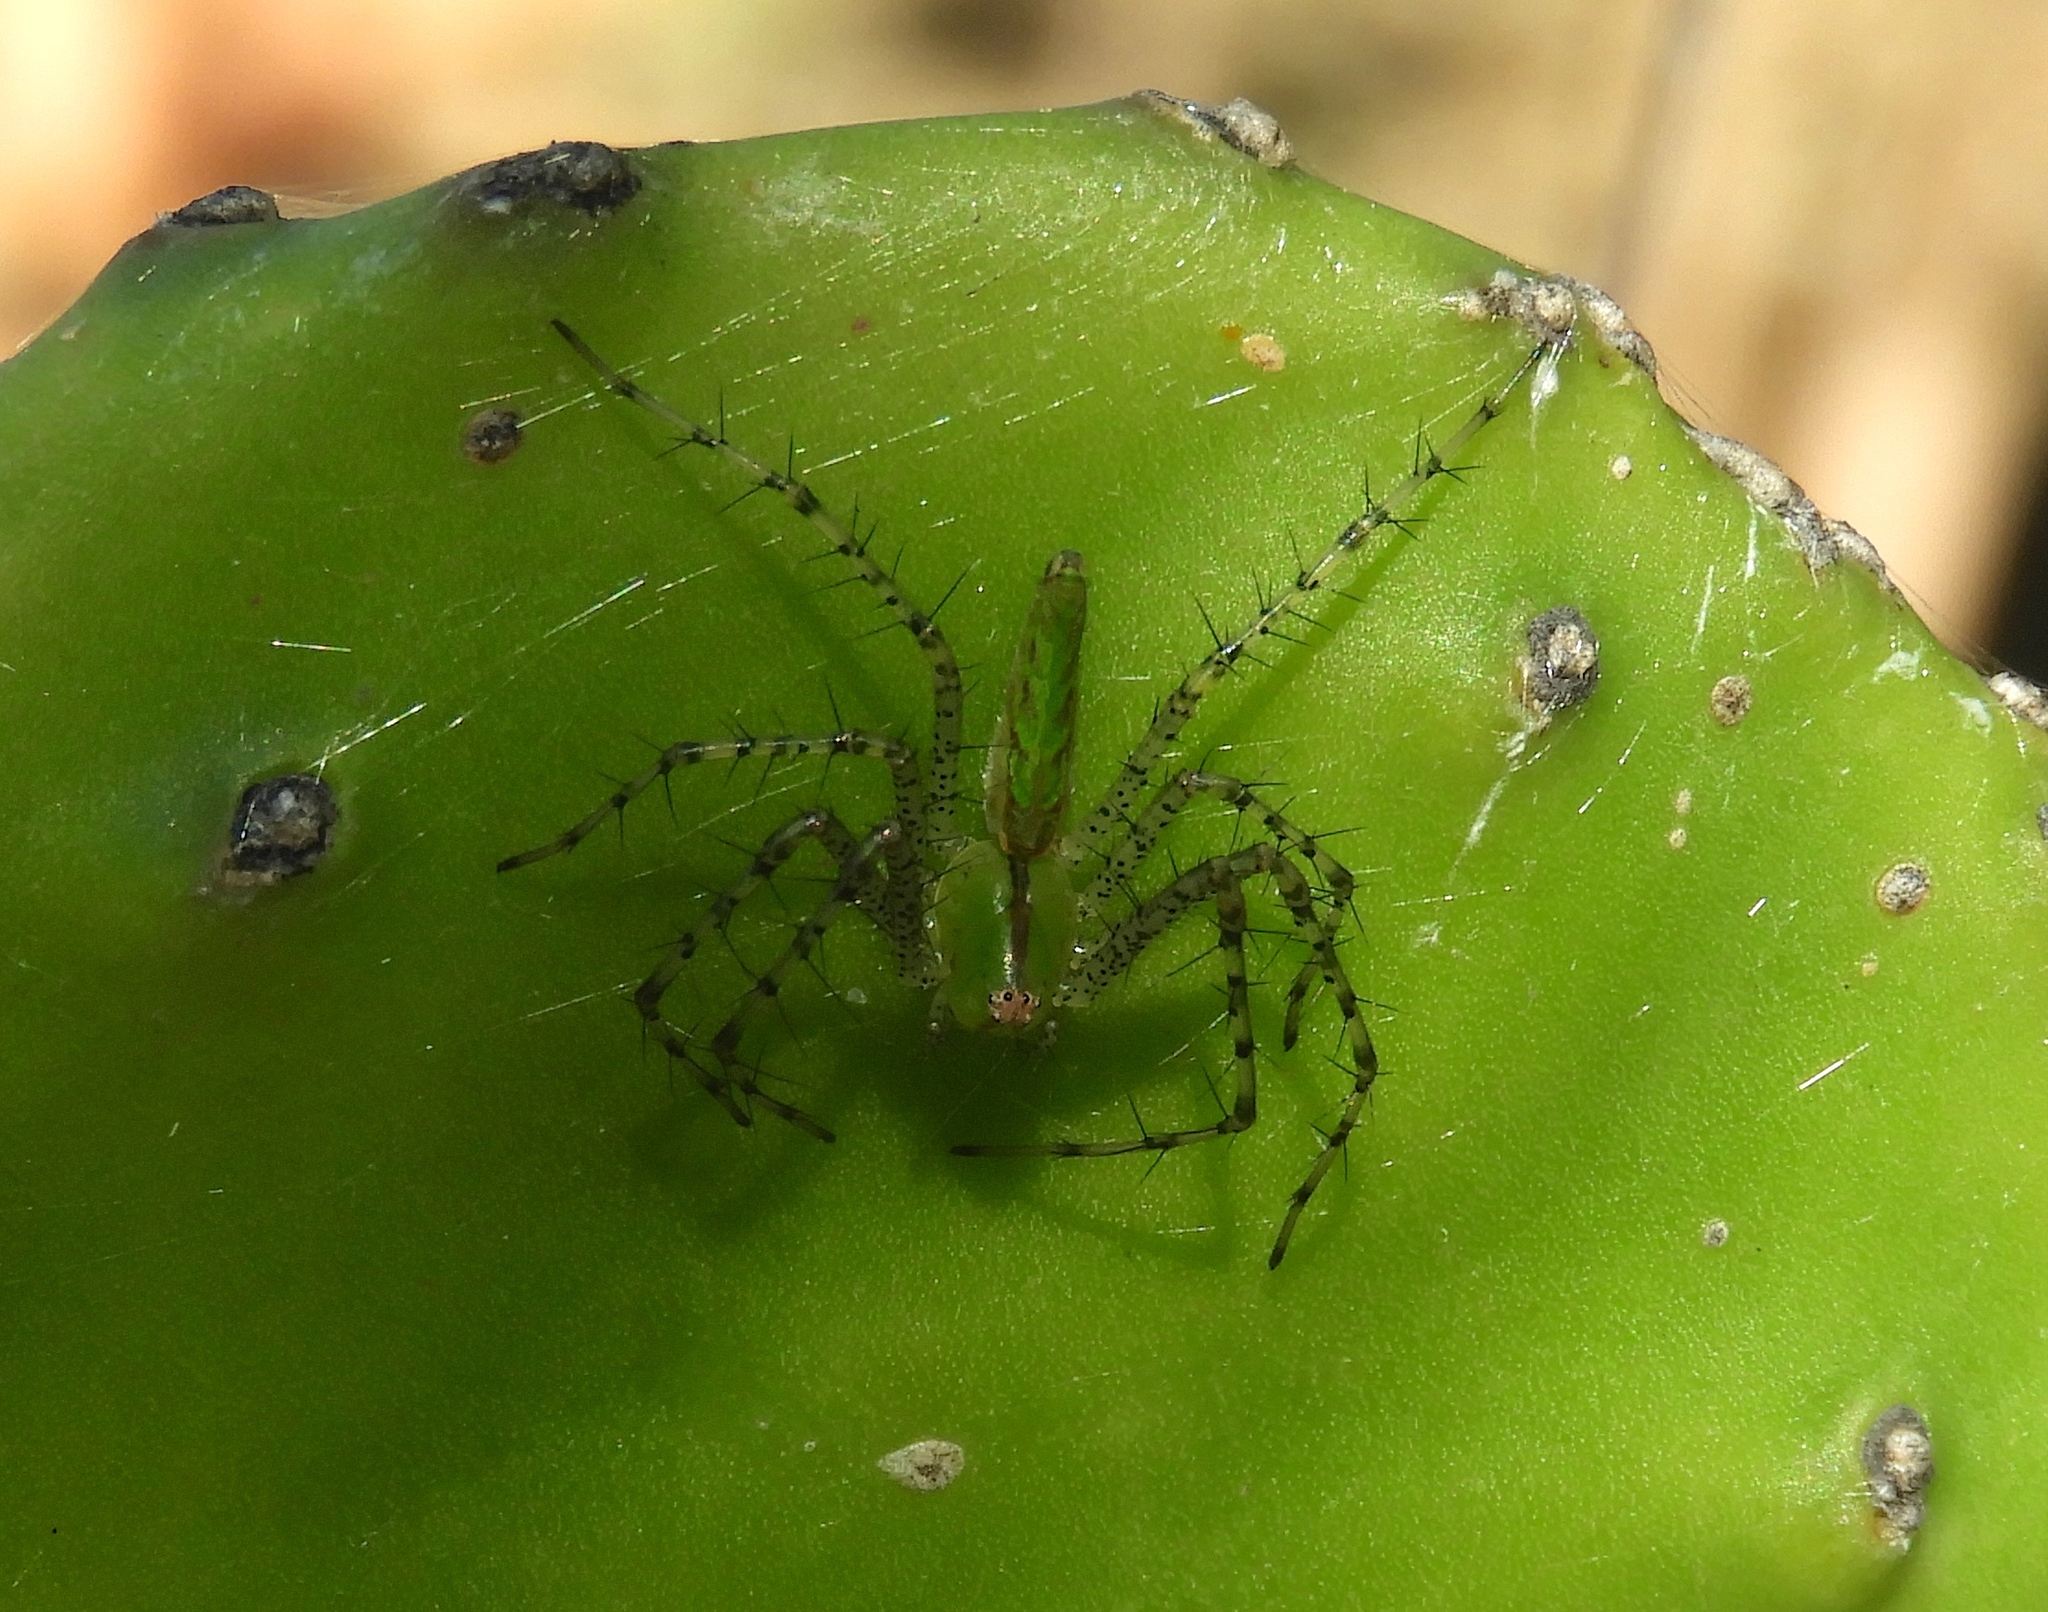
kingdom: Animalia
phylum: Arthropoda
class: Arachnida
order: Araneae
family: Oxyopidae
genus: Peucetia
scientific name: Peucetia
